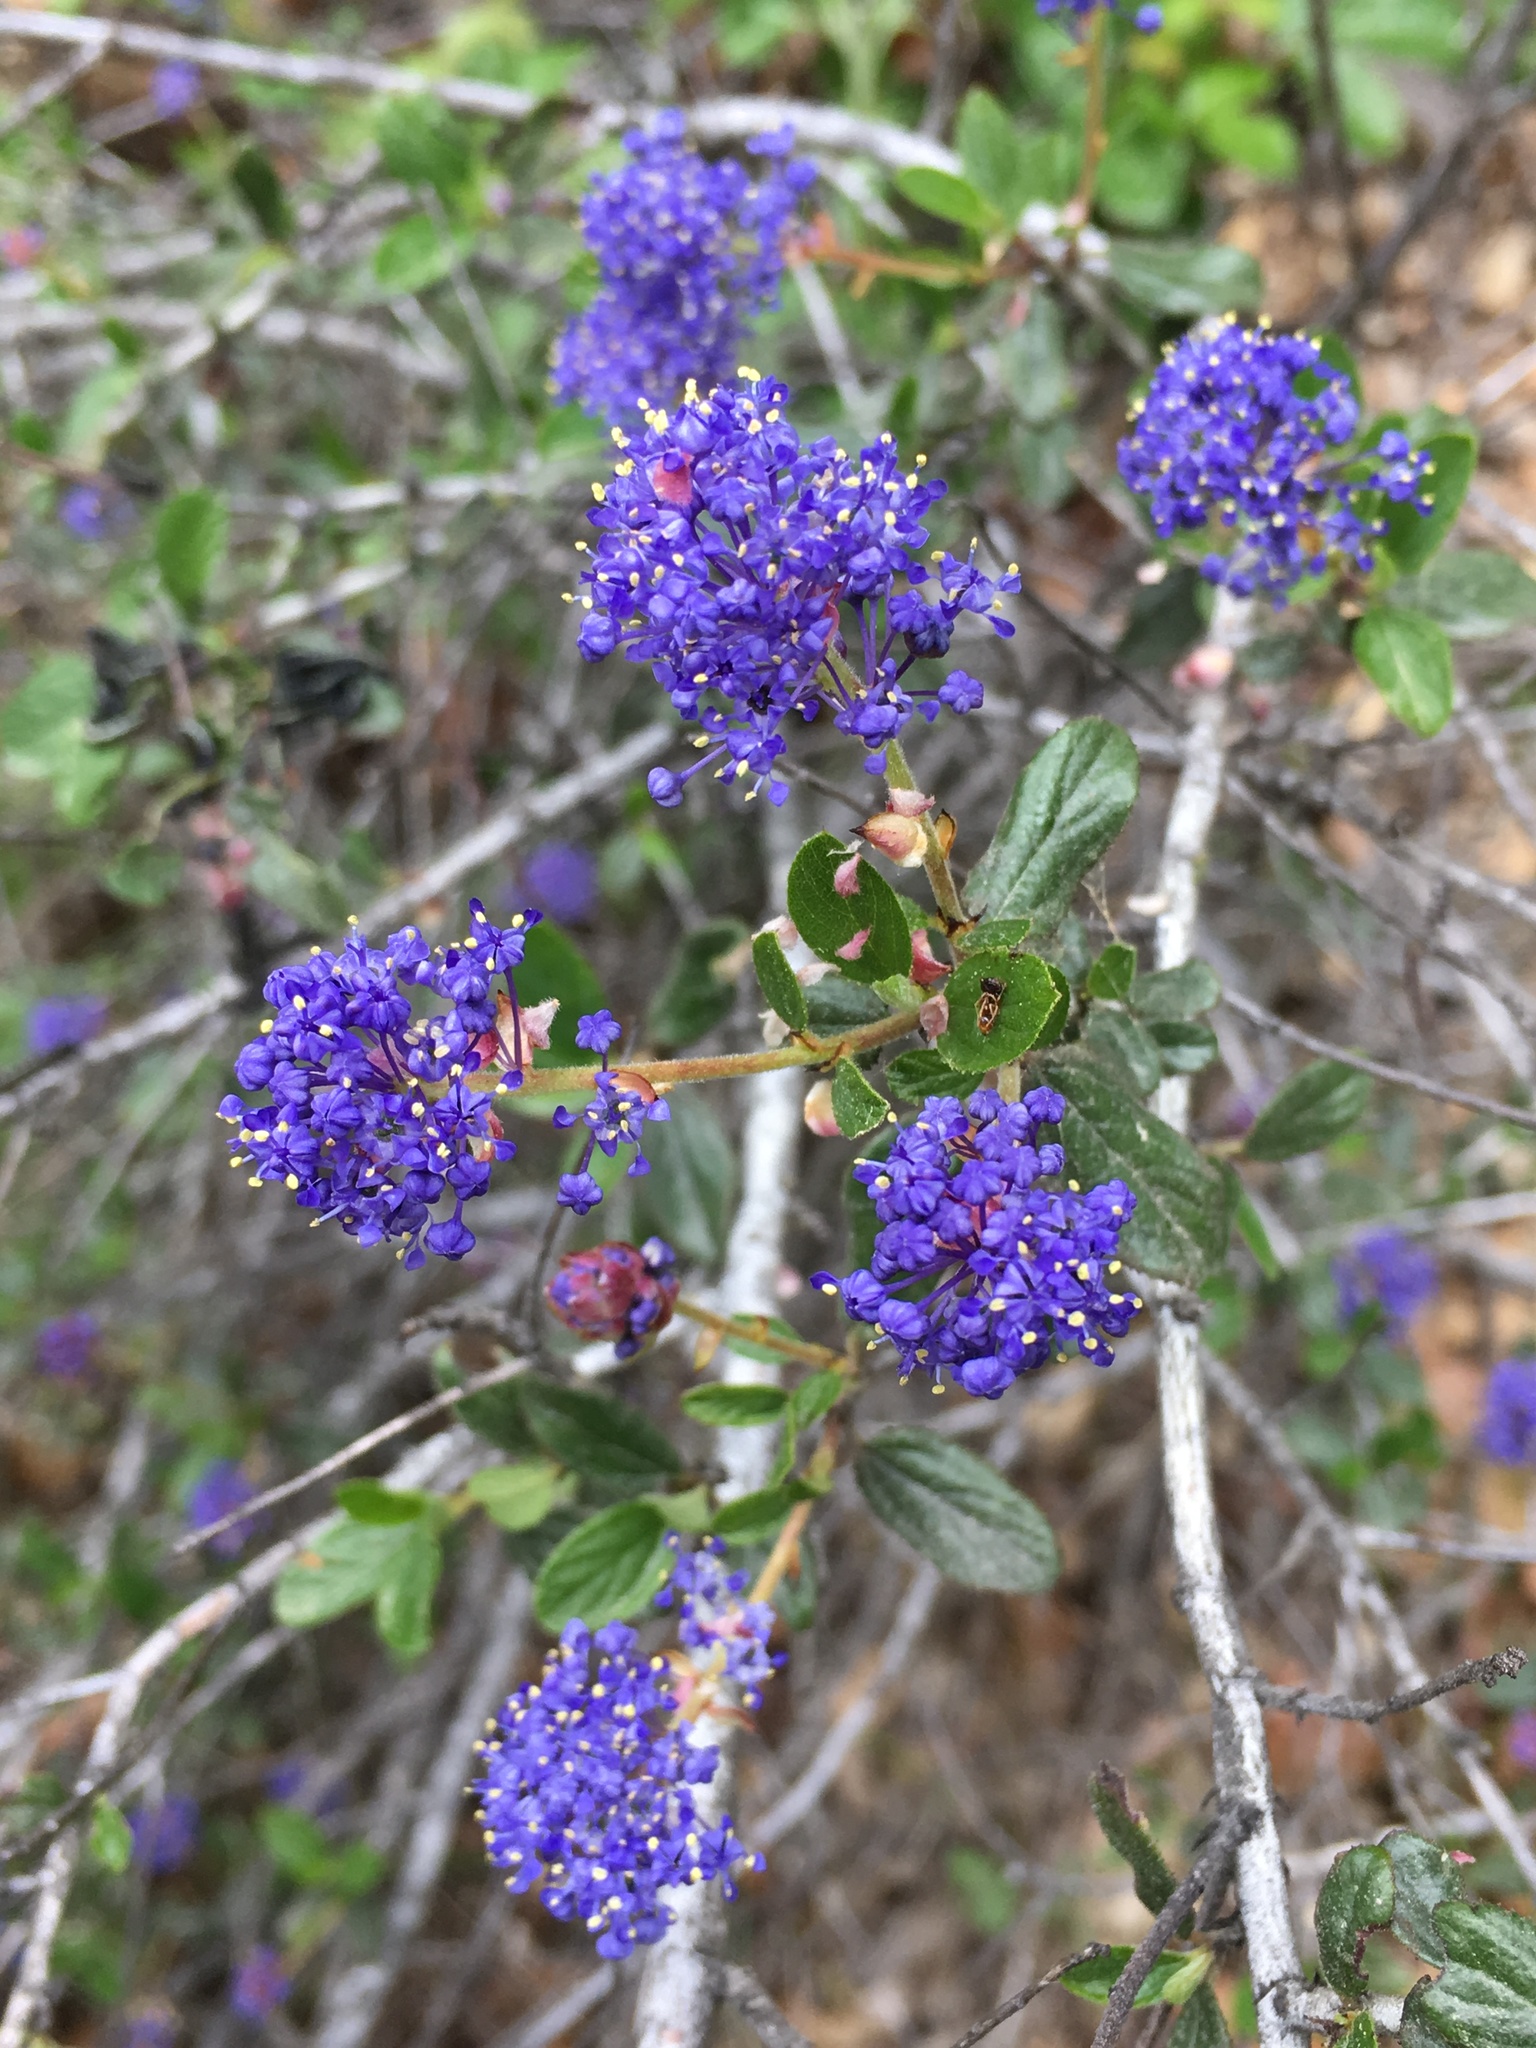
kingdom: Plantae
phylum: Tracheophyta
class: Magnoliopsida
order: Rosales
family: Rhamnaceae
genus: Ceanothus
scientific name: Ceanothus lemmonii
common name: Lemmon's ceanothus
